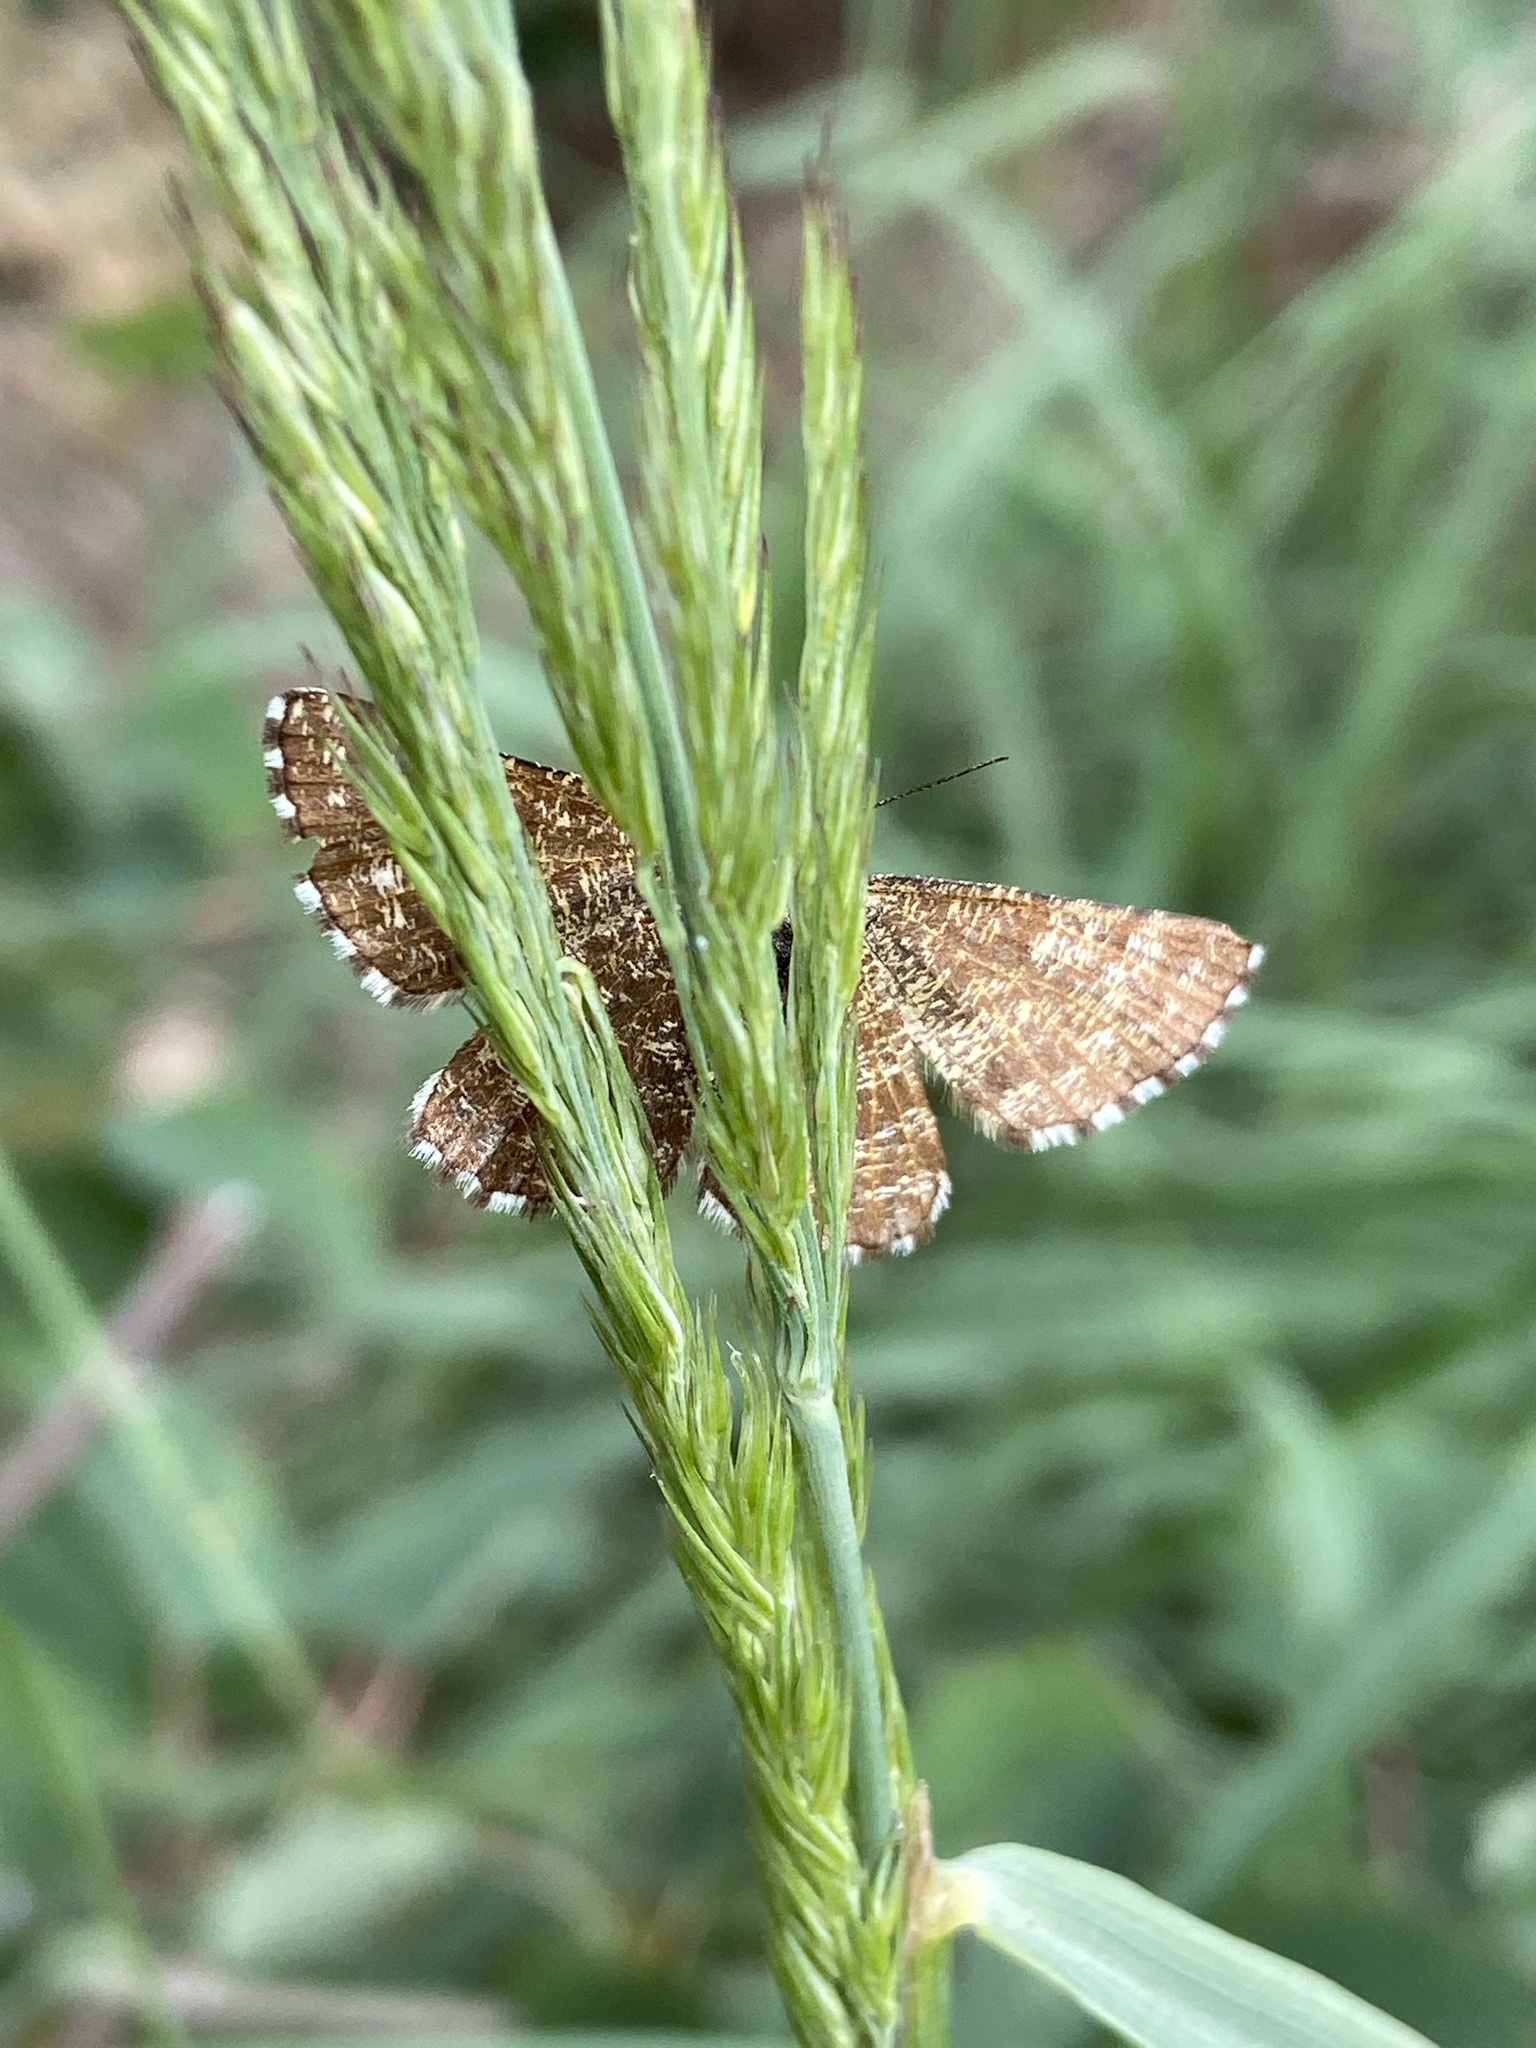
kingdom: Animalia
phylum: Arthropoda
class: Insecta
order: Lepidoptera
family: Geometridae
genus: Ematurga
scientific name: Ematurga atomaria
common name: Common heath
